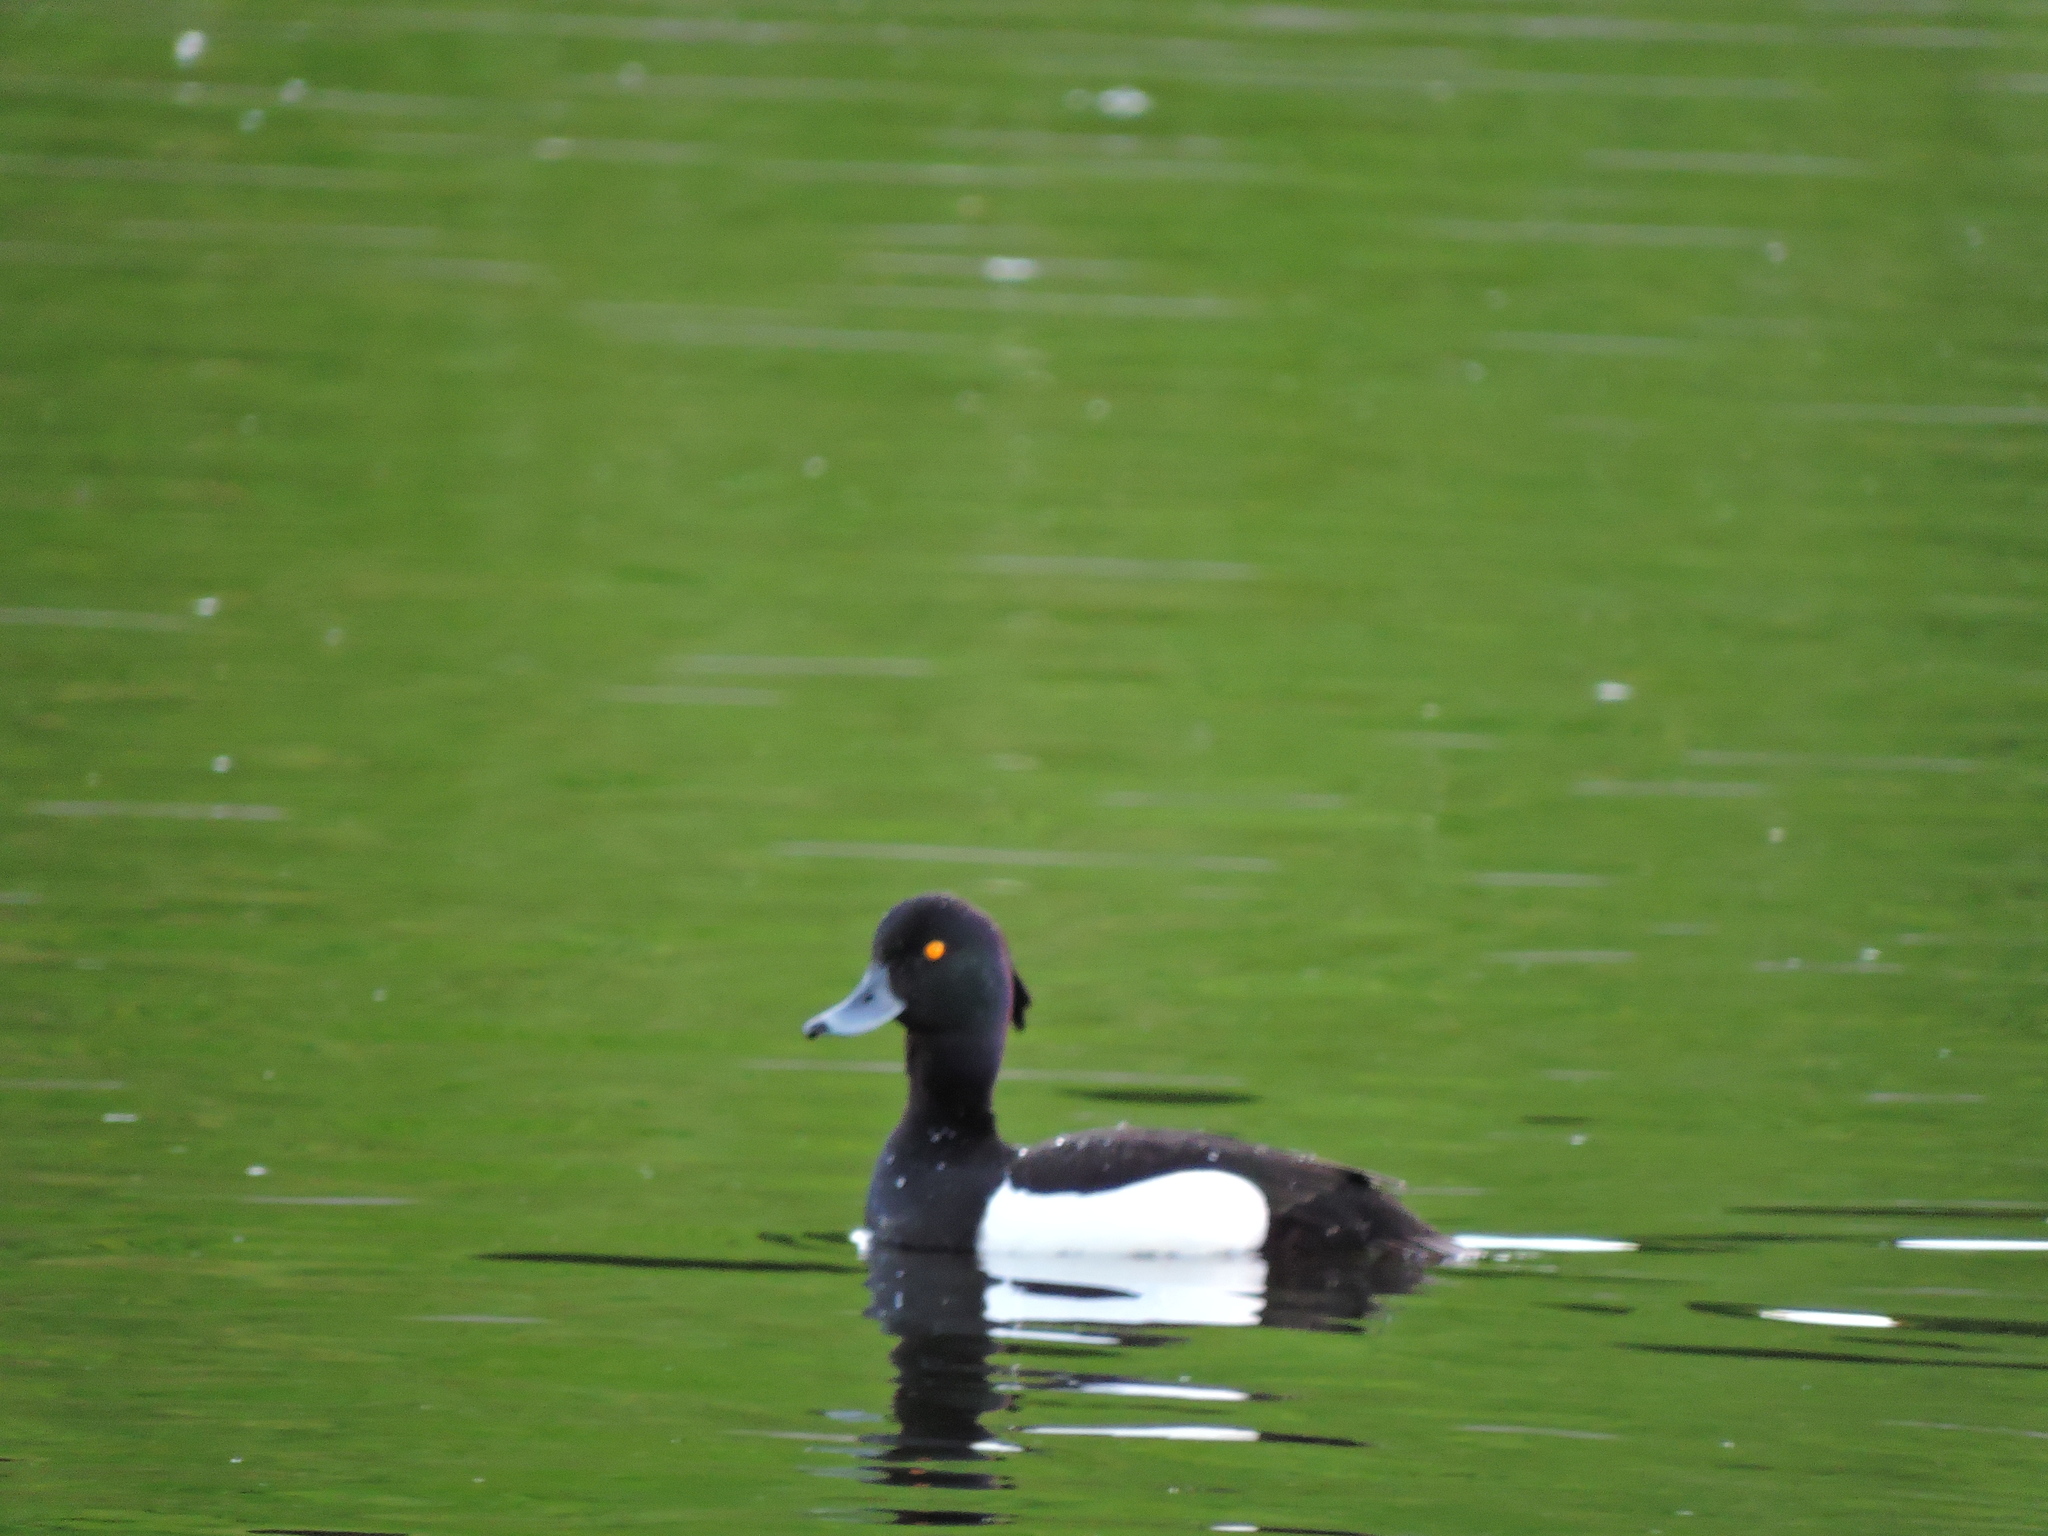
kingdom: Animalia
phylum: Chordata
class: Aves
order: Anseriformes
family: Anatidae
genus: Aythya
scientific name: Aythya fuligula
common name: Tufted duck
